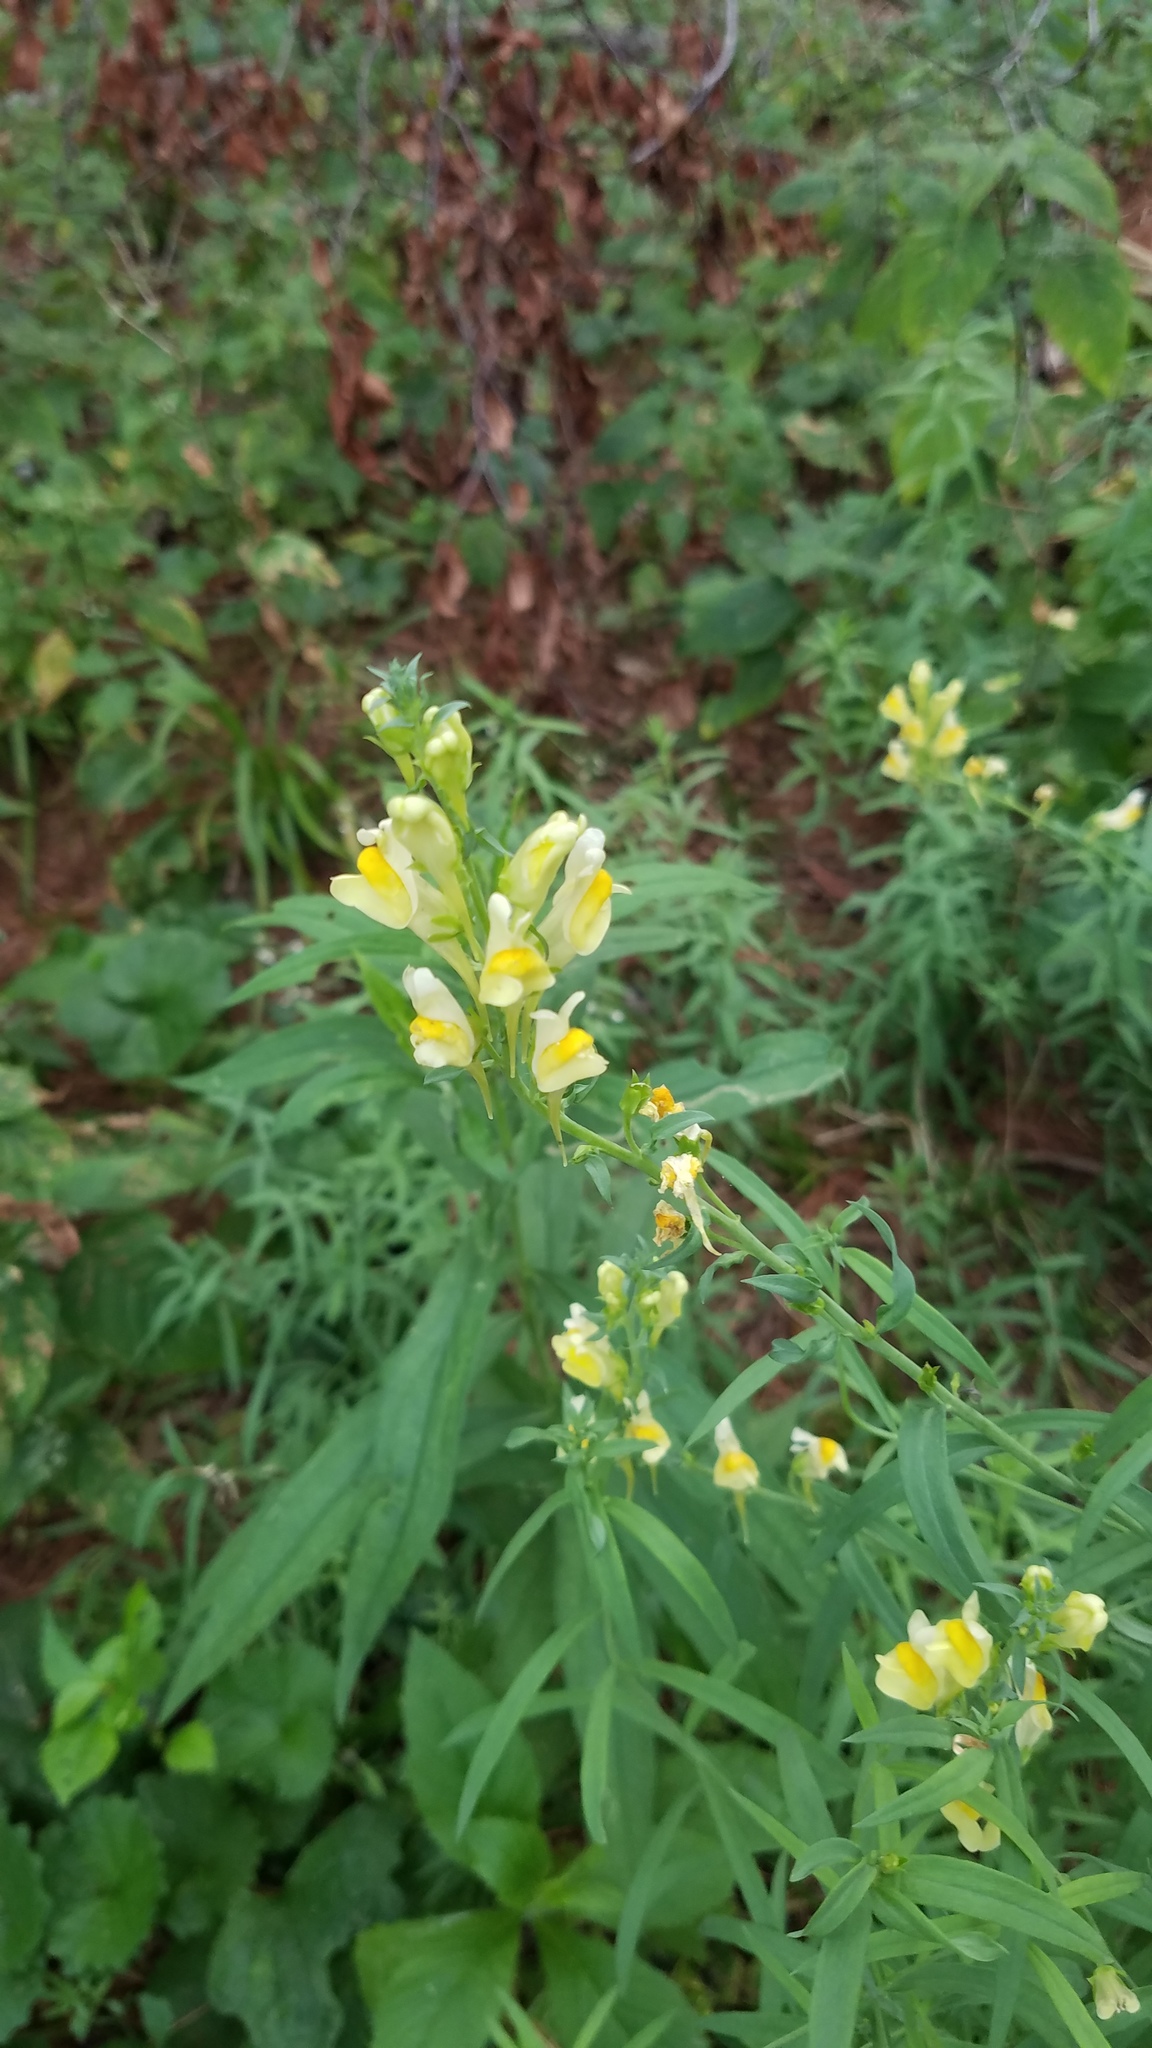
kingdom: Plantae
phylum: Tracheophyta
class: Magnoliopsida
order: Lamiales
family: Plantaginaceae
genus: Linaria
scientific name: Linaria vulgaris
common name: Butter and eggs
